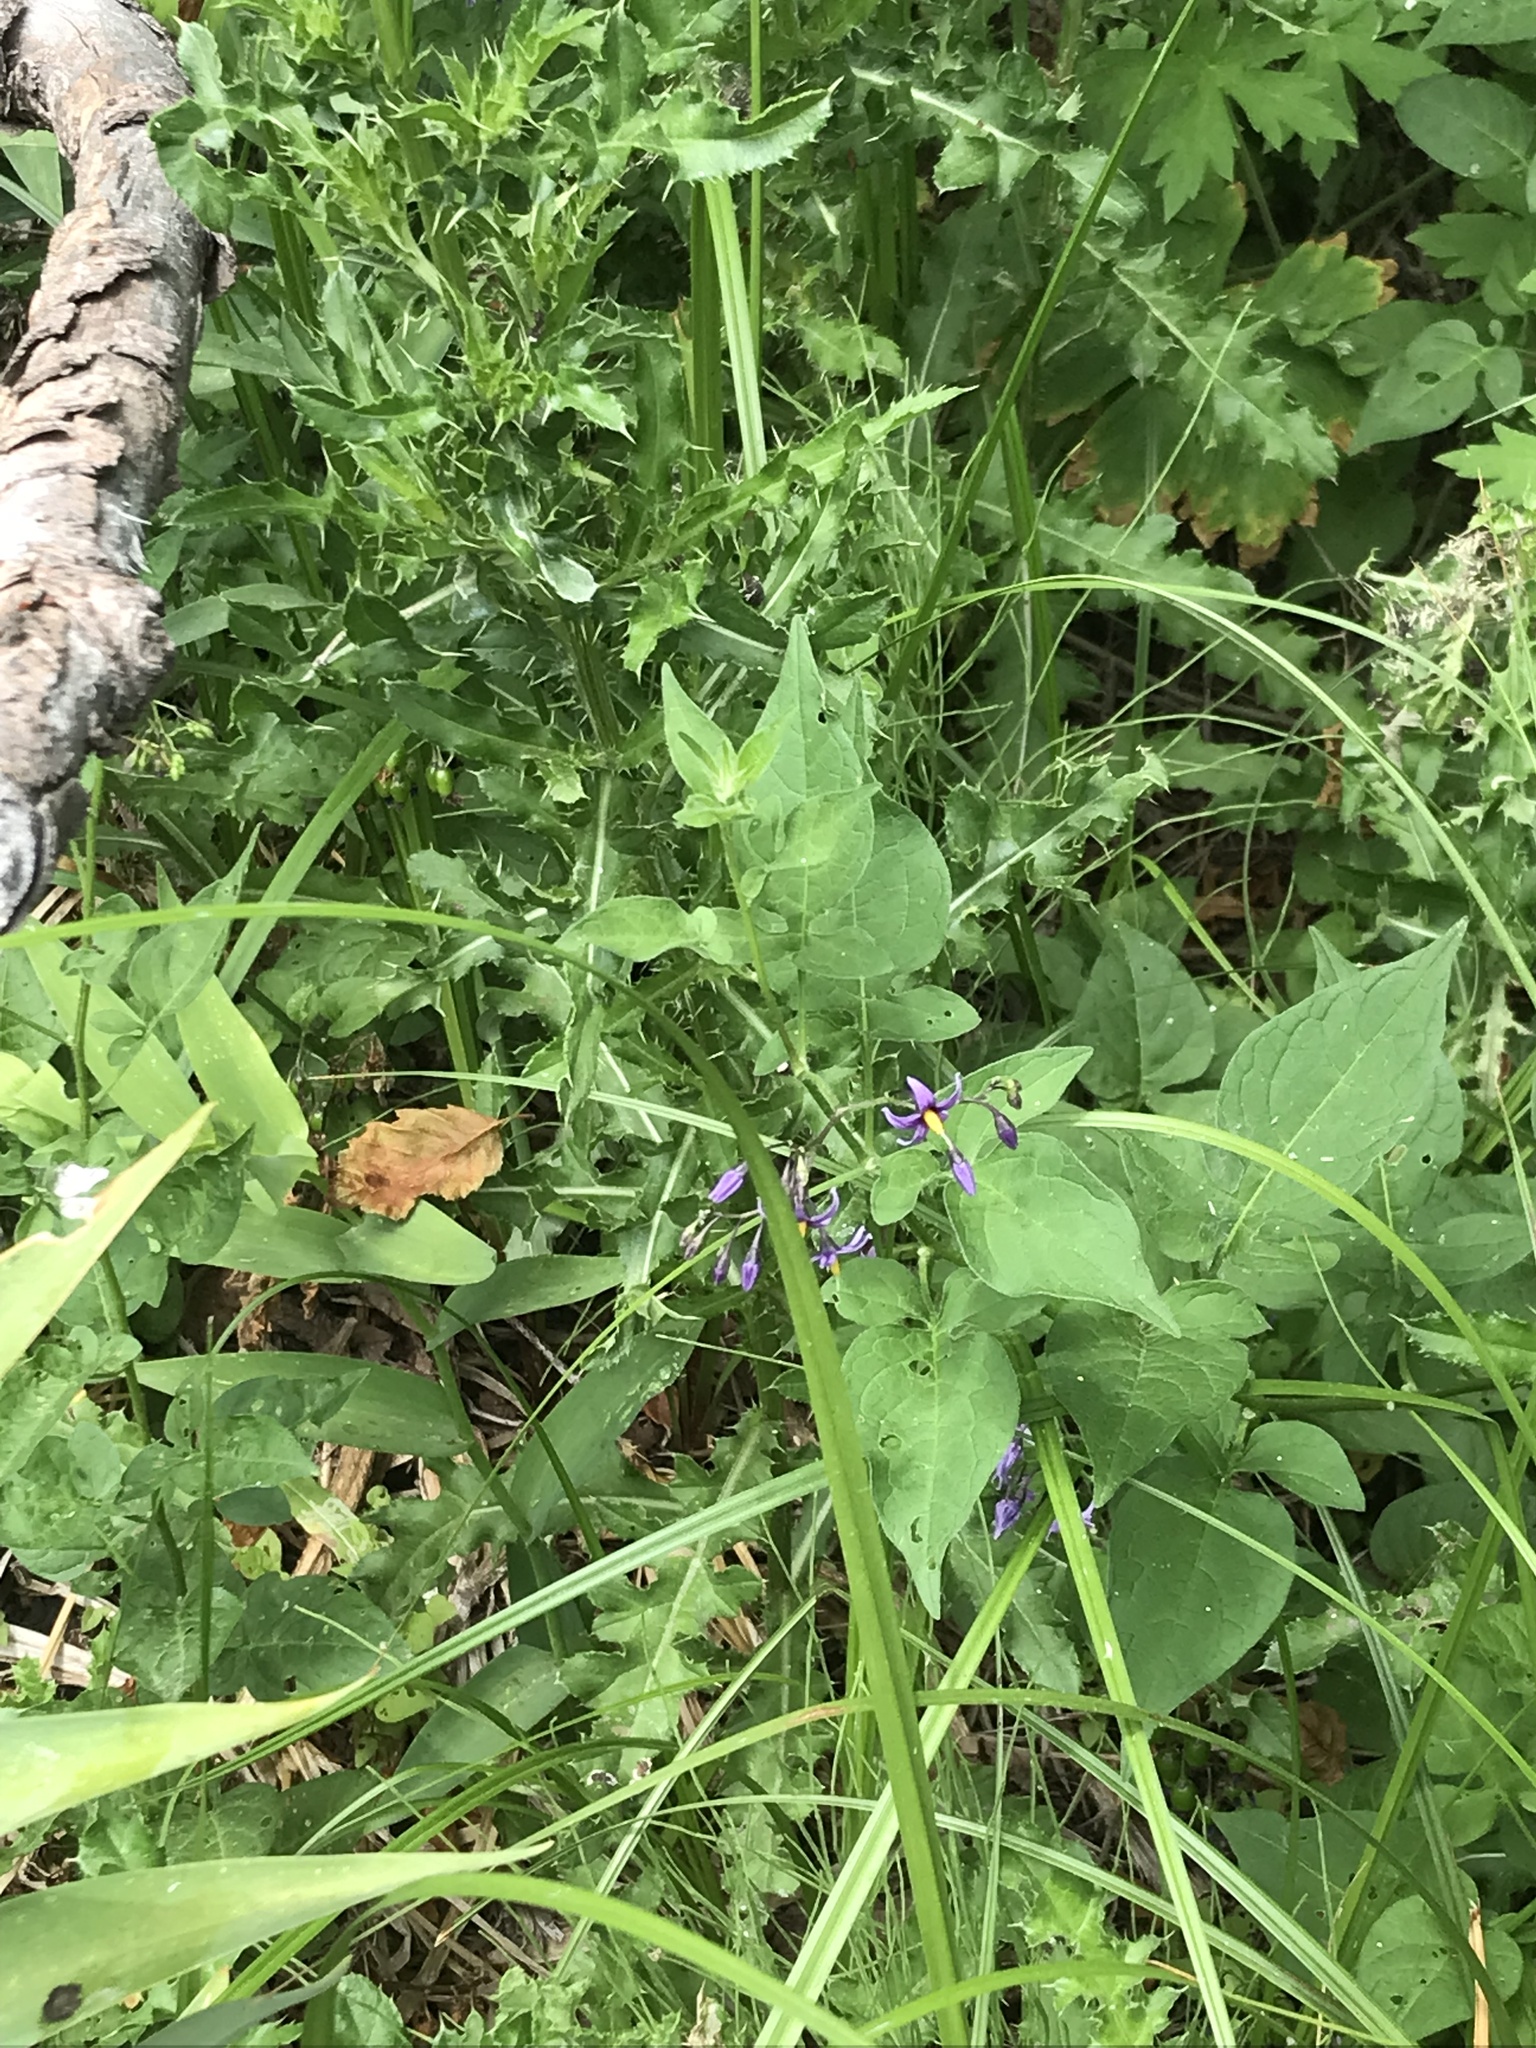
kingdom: Plantae
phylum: Tracheophyta
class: Magnoliopsida
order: Solanales
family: Solanaceae
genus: Solanum
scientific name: Solanum dulcamara
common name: Climbing nightshade
